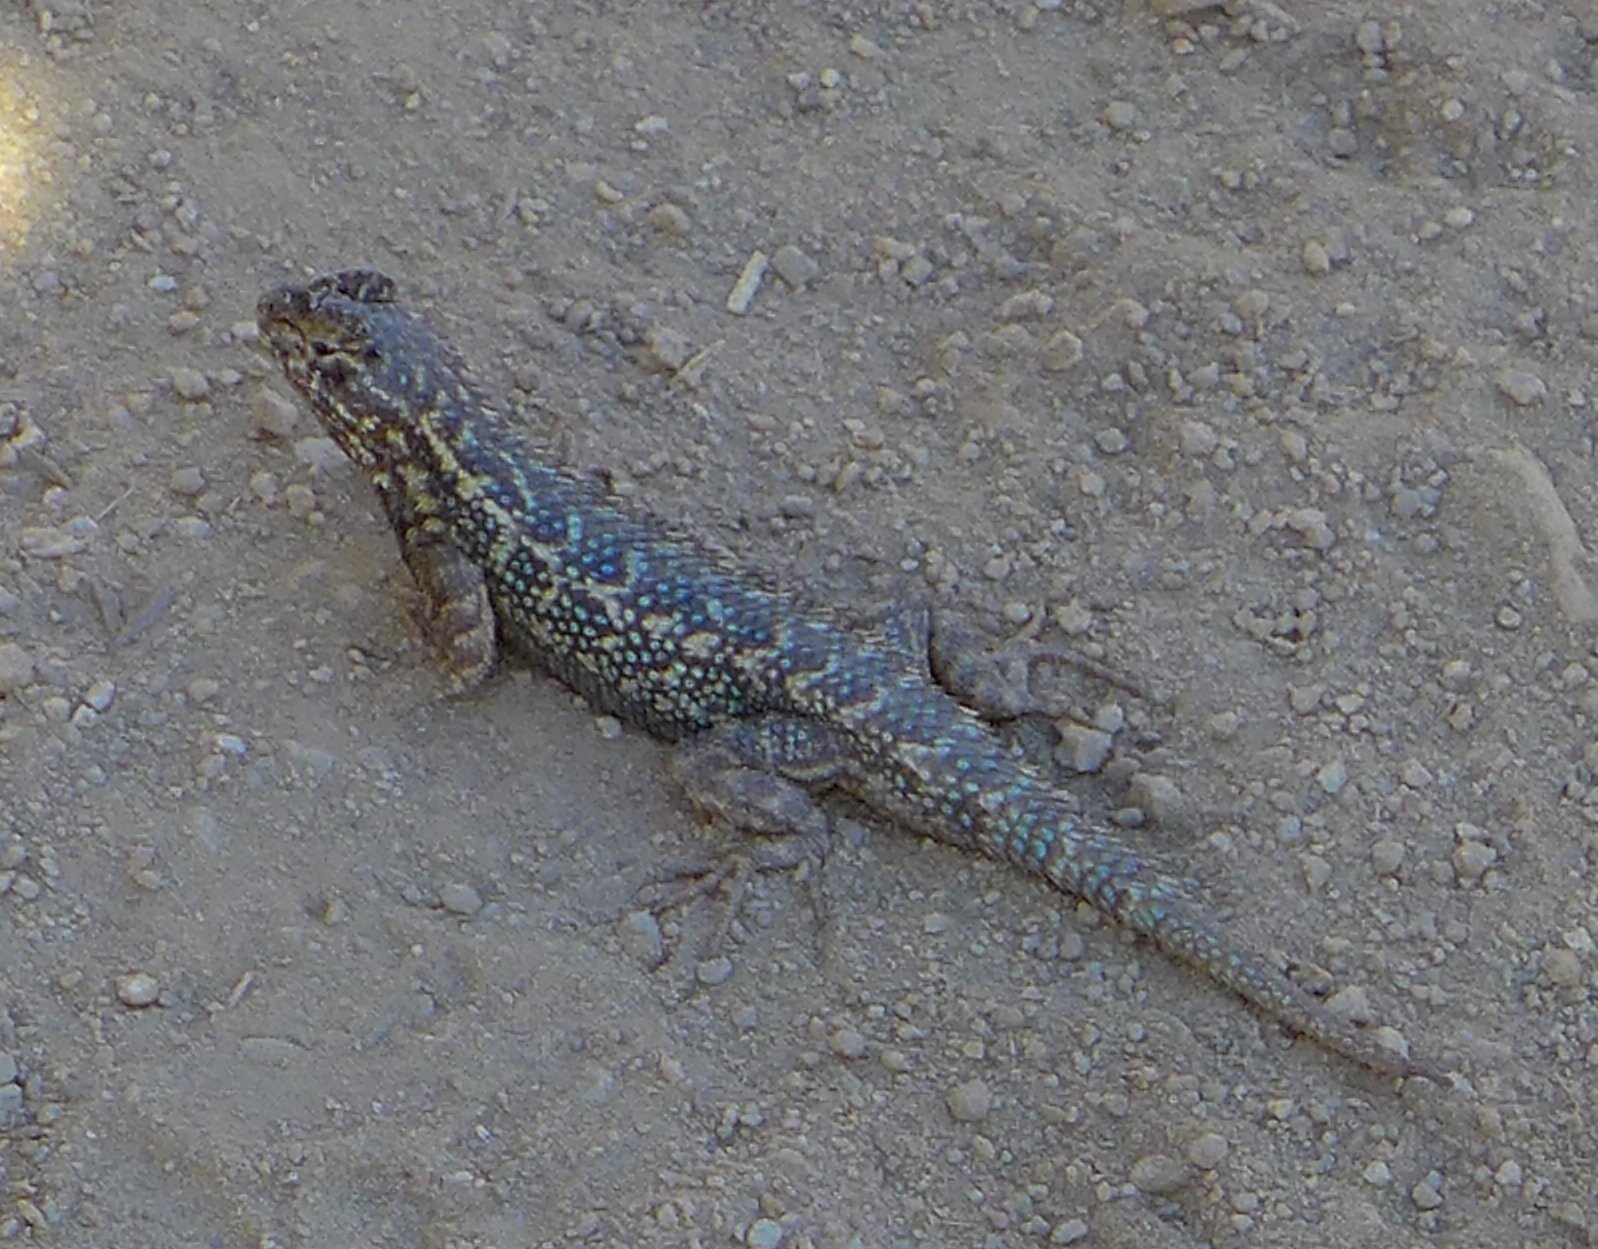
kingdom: Animalia
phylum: Chordata
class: Squamata
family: Phrynosomatidae
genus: Sceloporus
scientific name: Sceloporus occidentalis
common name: Western fence lizard
